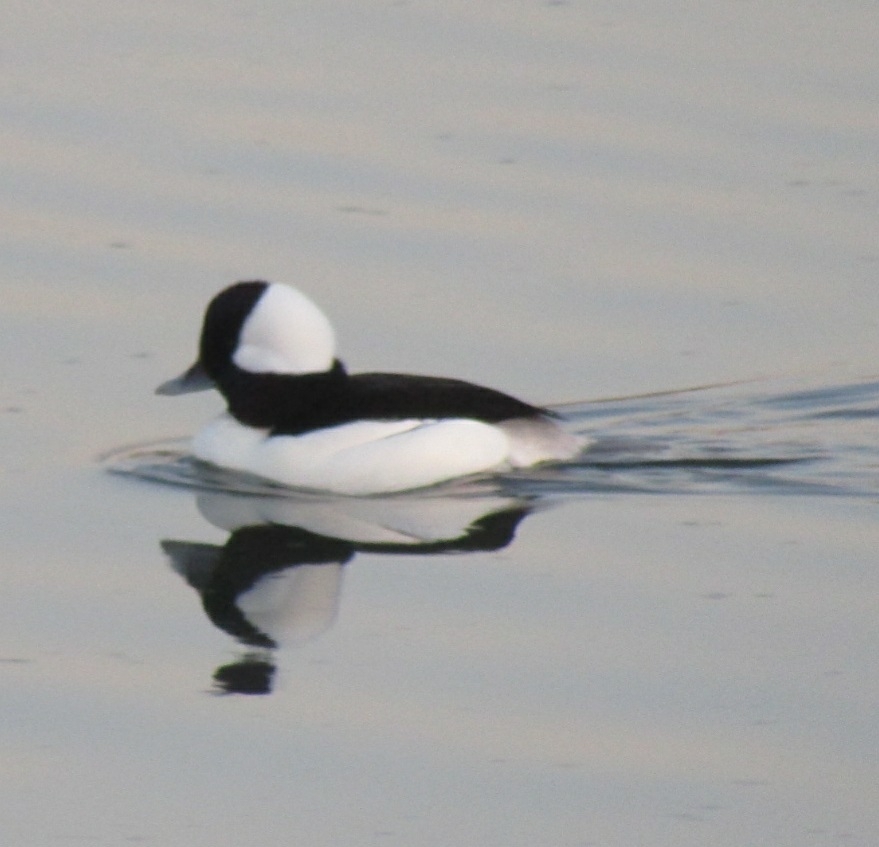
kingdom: Animalia
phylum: Chordata
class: Aves
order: Anseriformes
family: Anatidae
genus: Bucephala
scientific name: Bucephala albeola
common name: Bufflehead
